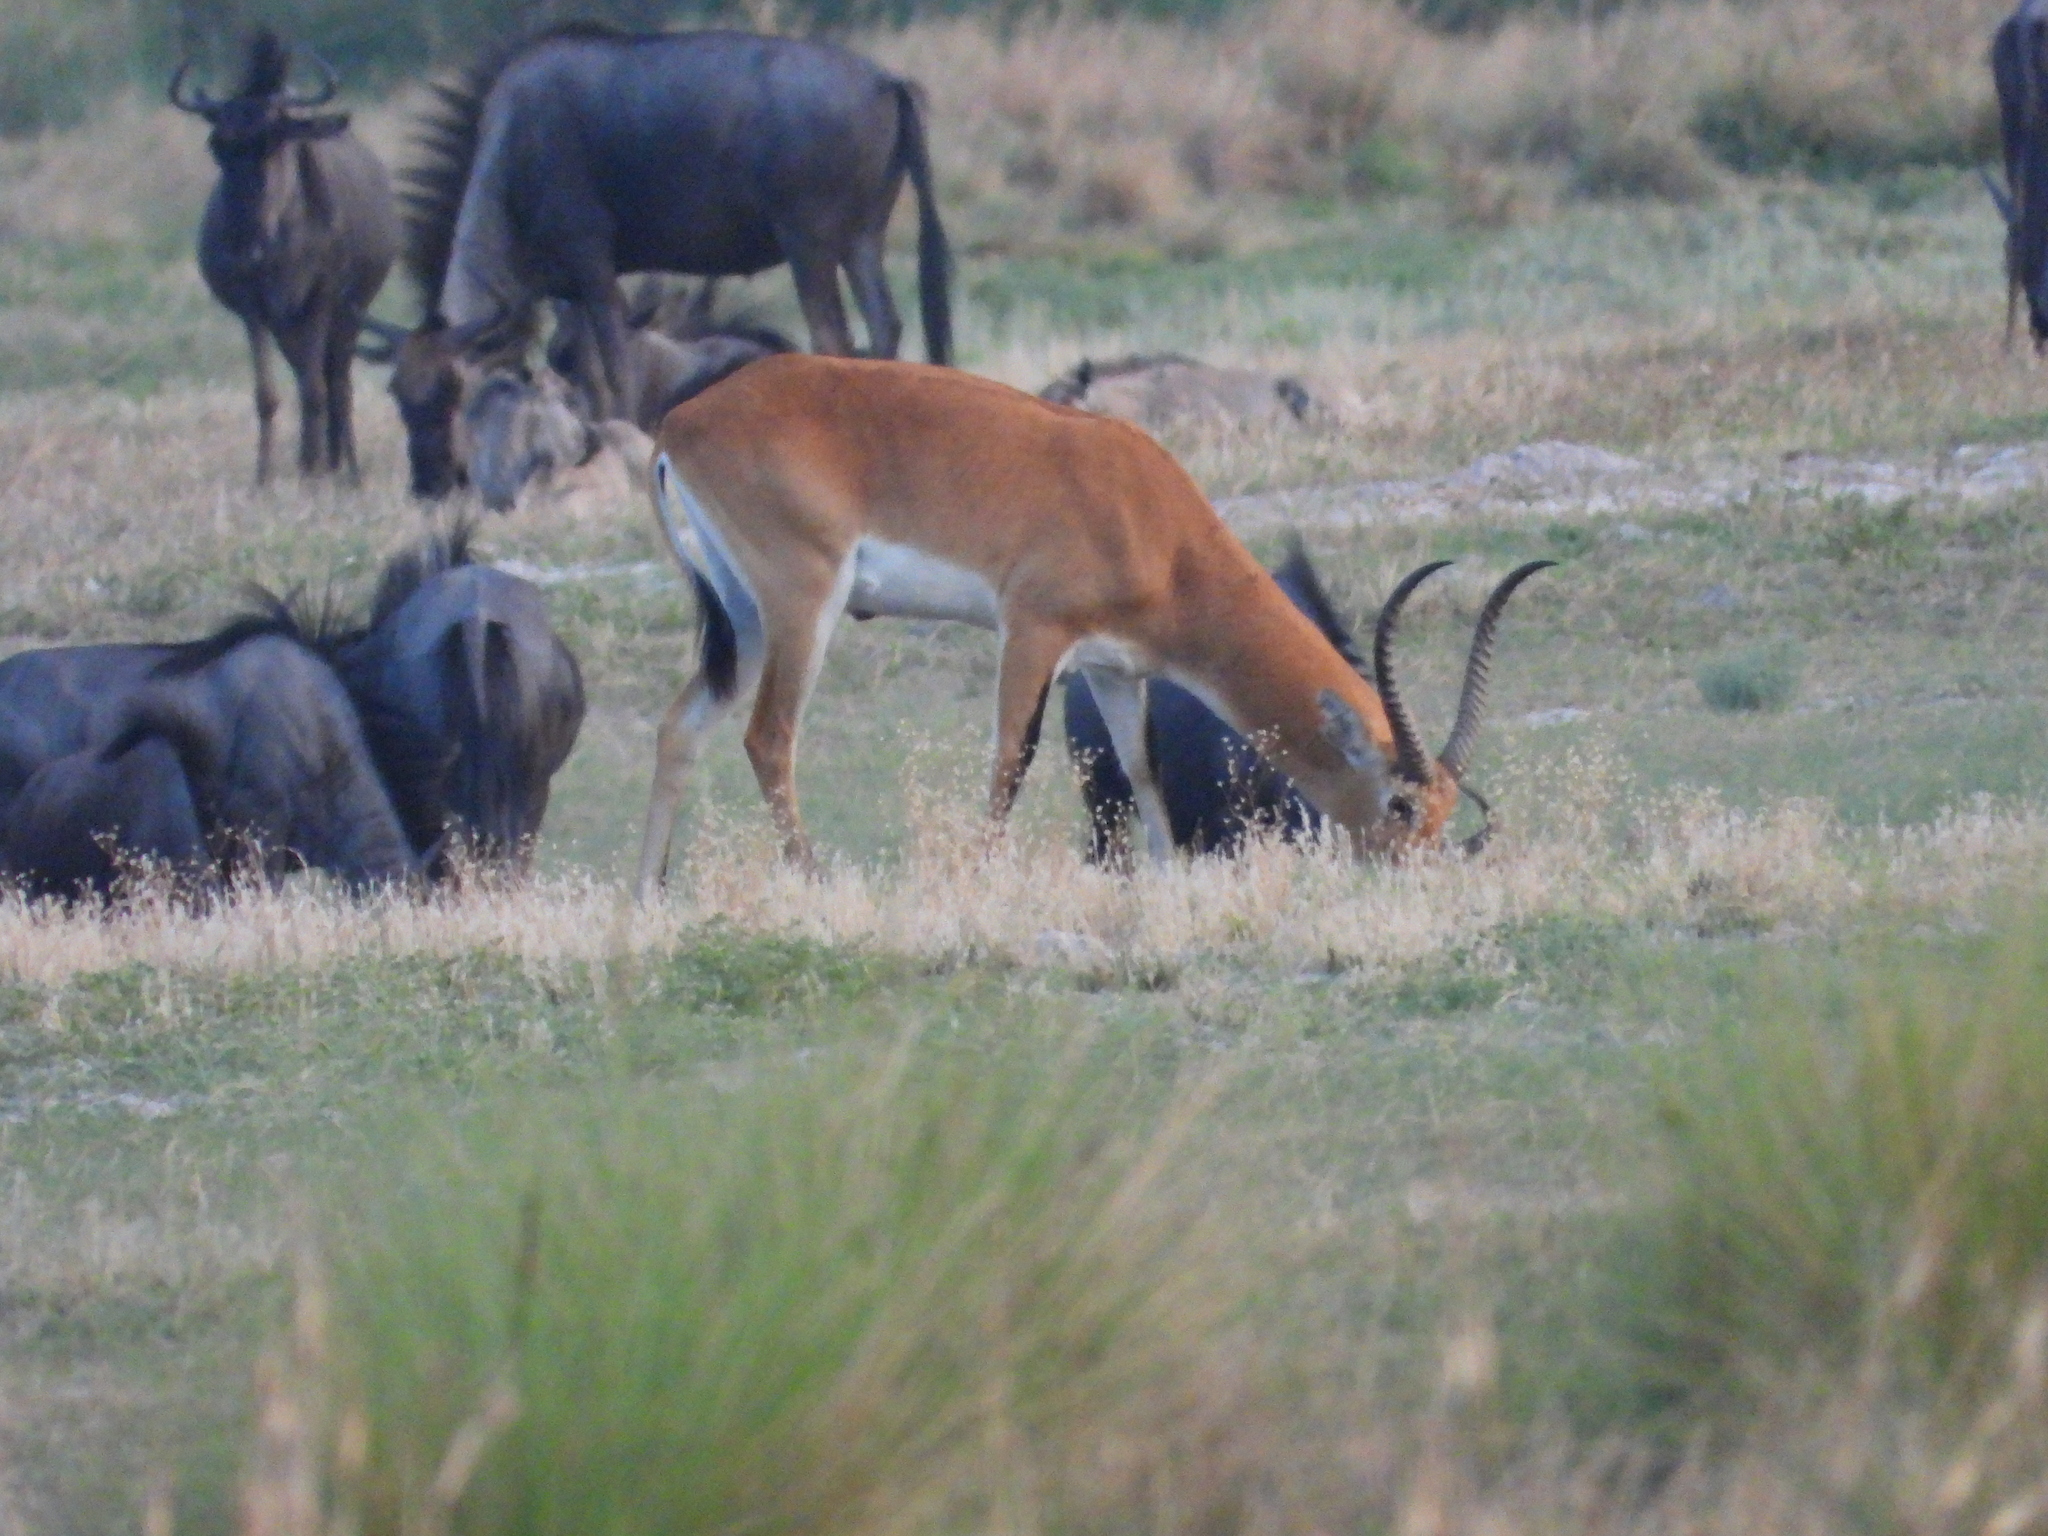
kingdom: Animalia
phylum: Chordata
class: Mammalia
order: Artiodactyla
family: Bovidae
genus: Kobus
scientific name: Kobus leche
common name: Lechwe
